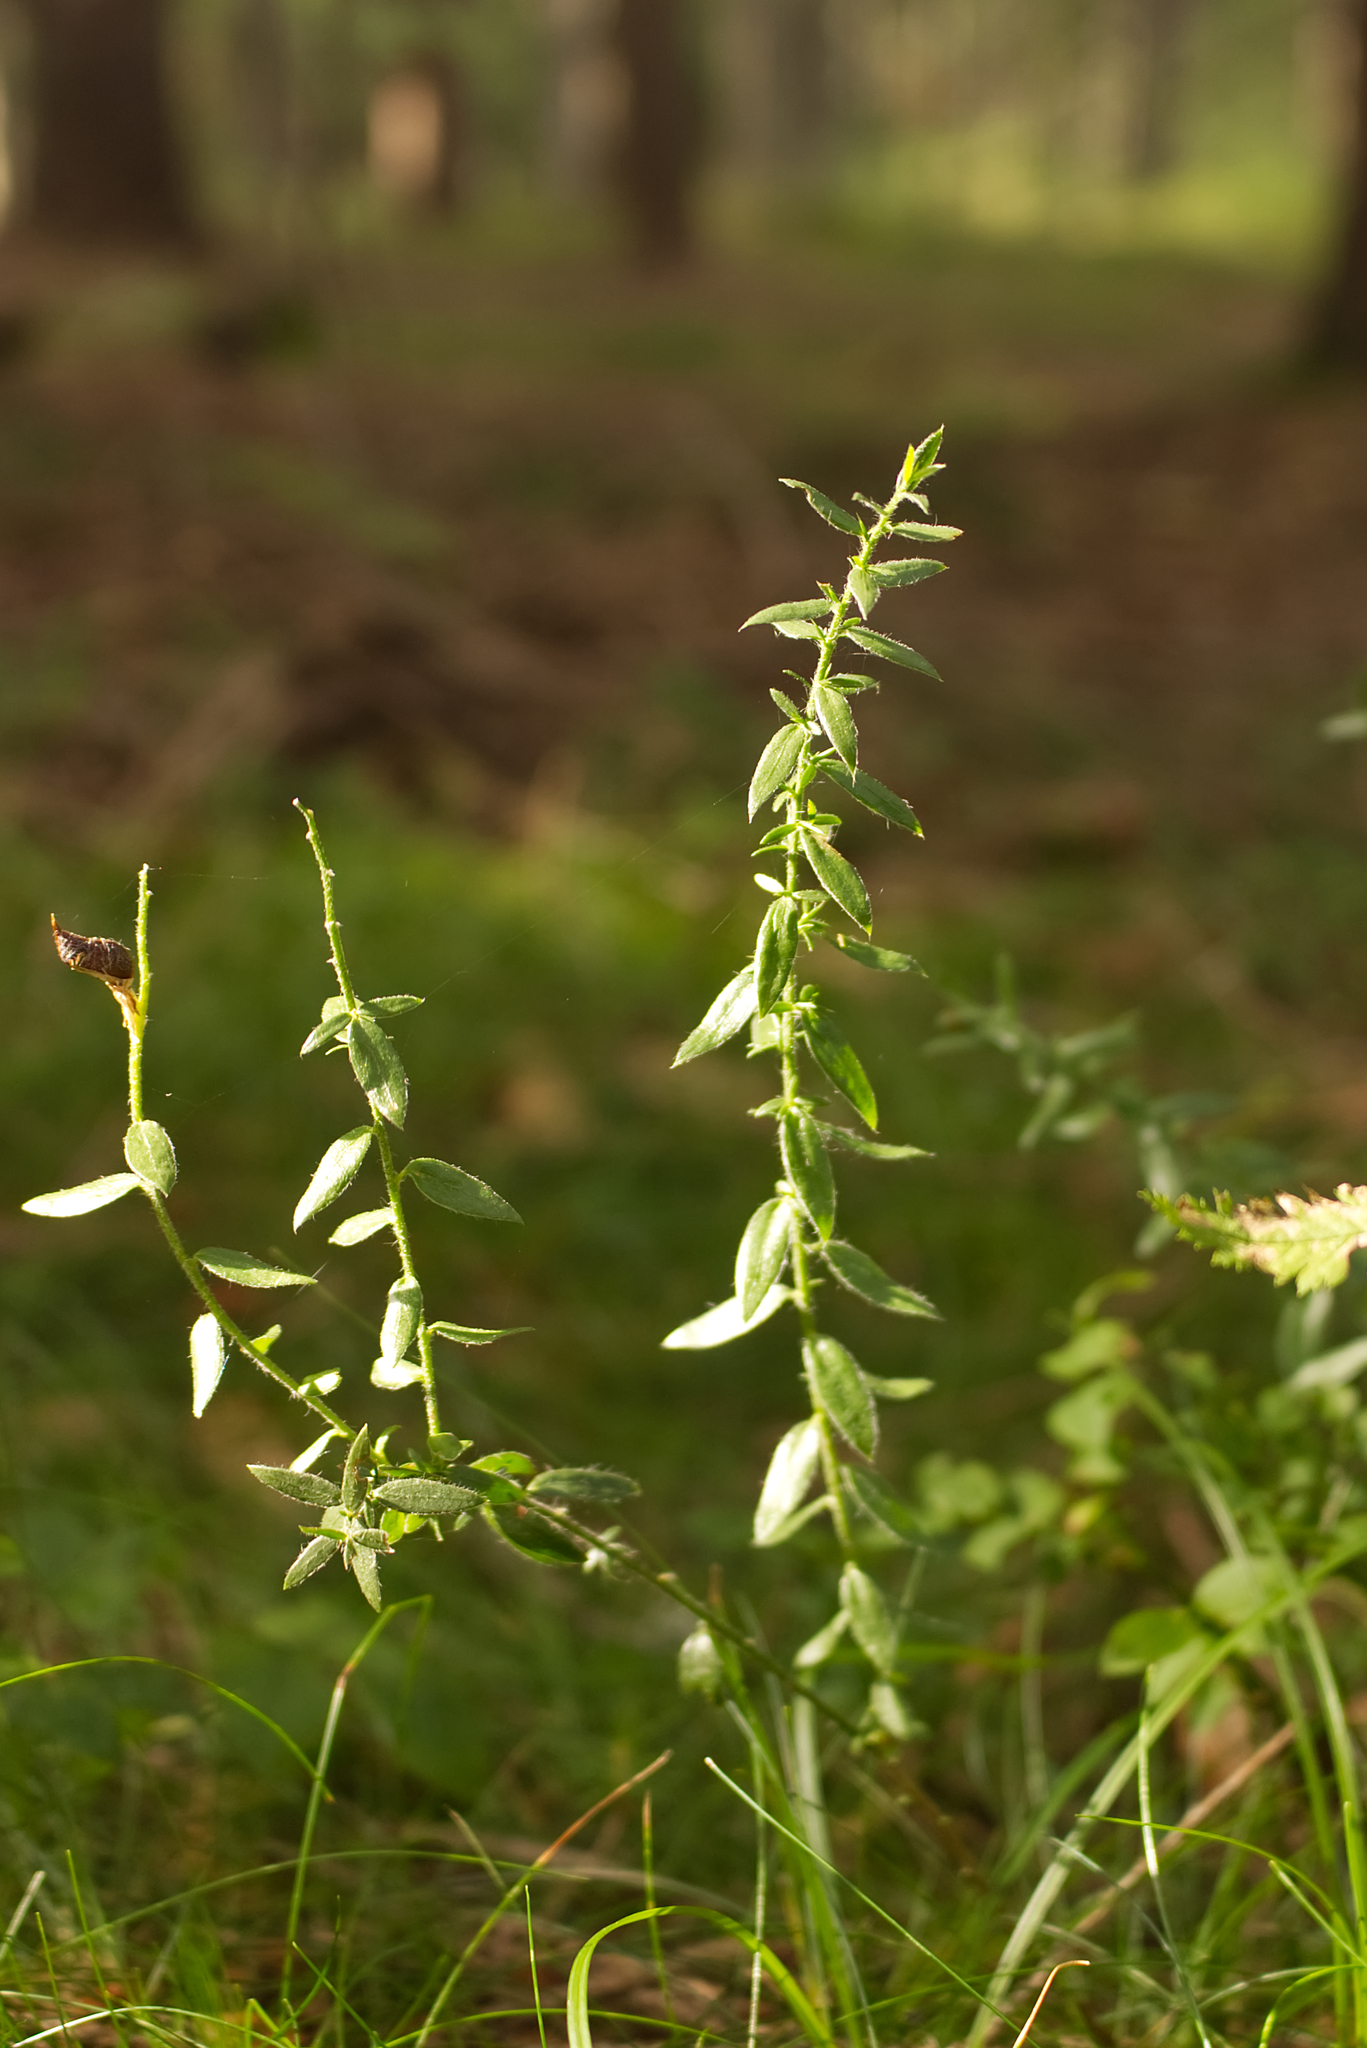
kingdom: Plantae
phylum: Tracheophyta
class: Magnoliopsida
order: Fabales
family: Fabaceae
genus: Genista
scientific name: Genista tinctoria
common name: Dyer's greenweed
